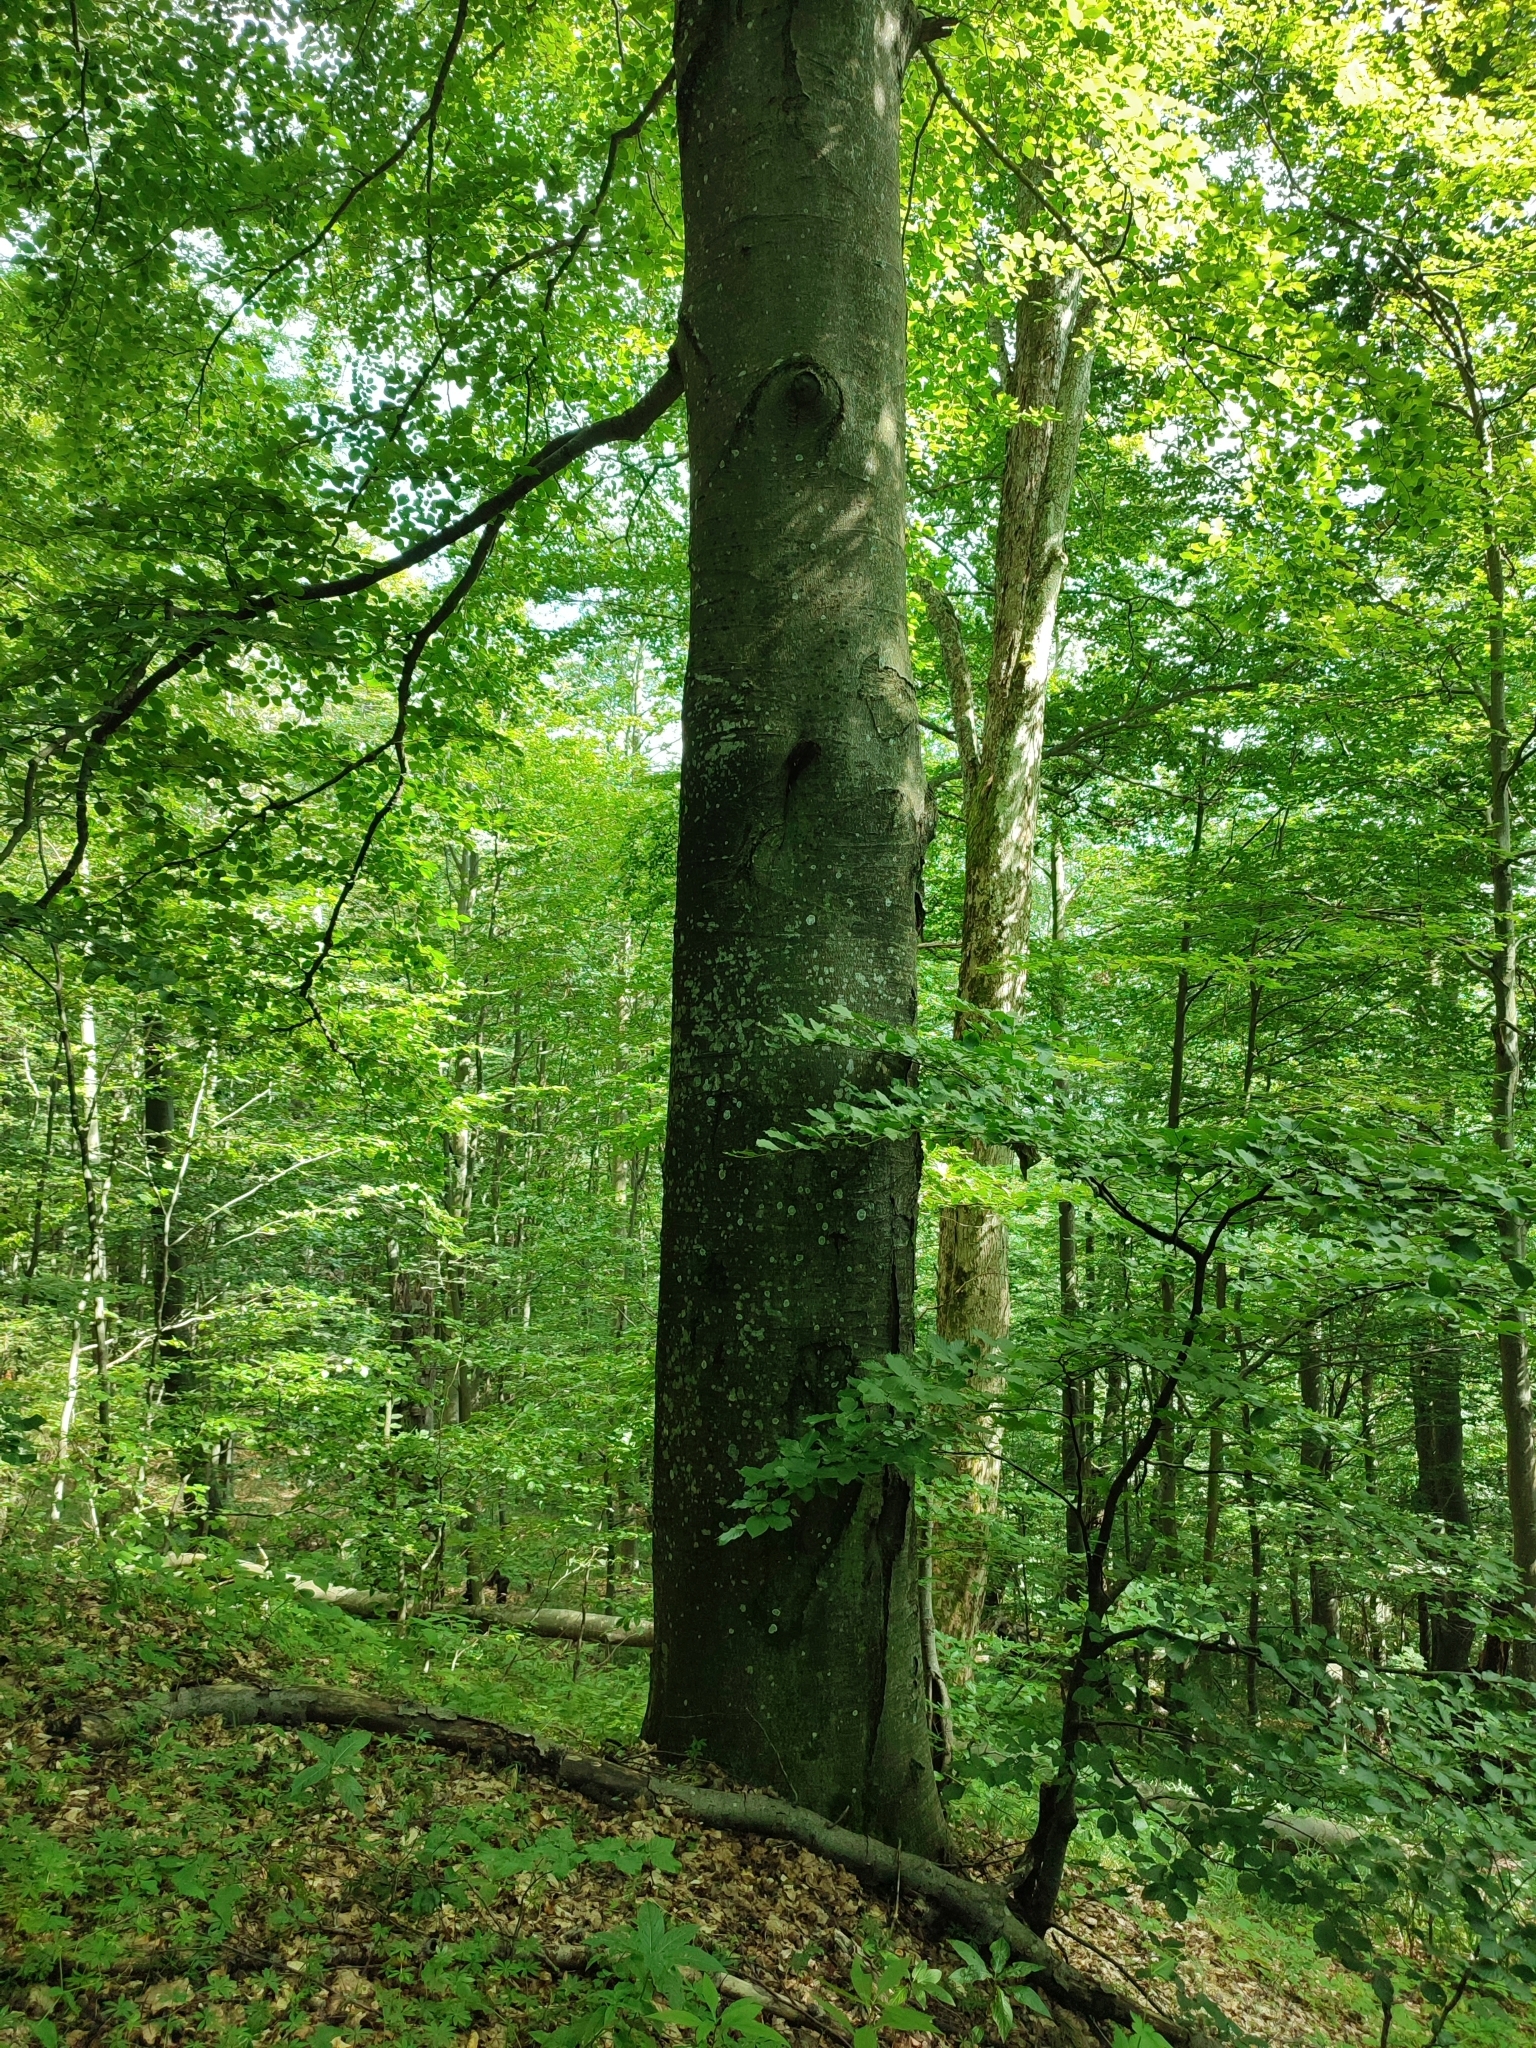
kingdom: Plantae
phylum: Tracheophyta
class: Magnoliopsida
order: Fagales
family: Fagaceae
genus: Fagus
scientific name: Fagus sylvatica
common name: Beech
